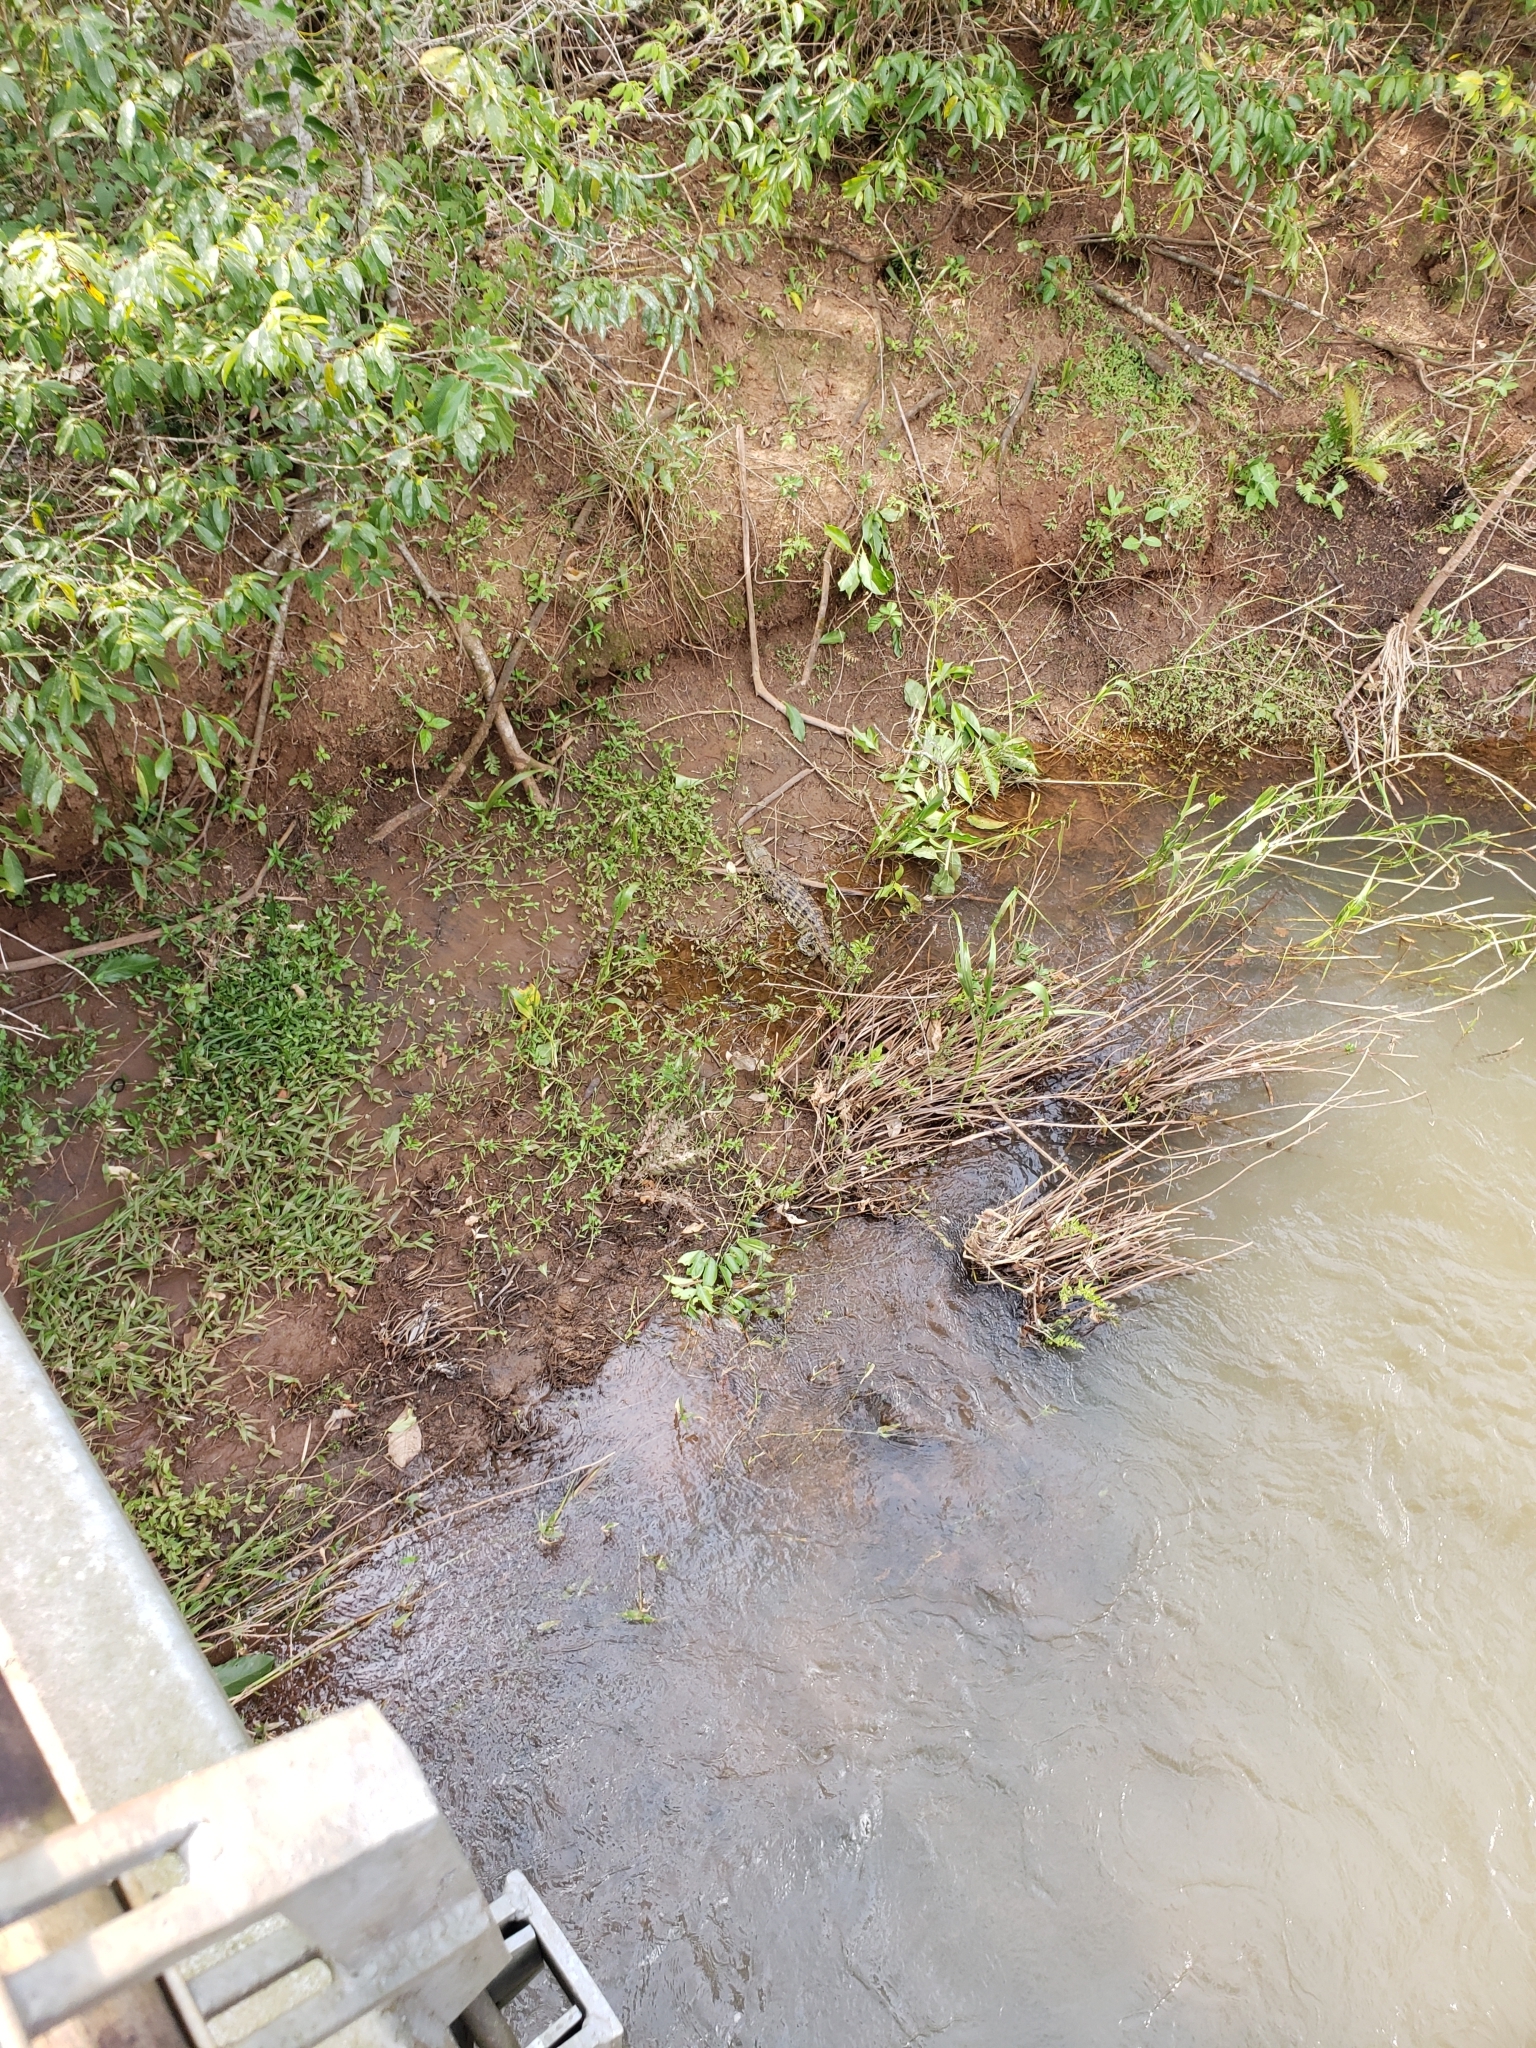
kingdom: Animalia
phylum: Chordata
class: Crocodylia
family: Alligatoridae
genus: Caiman
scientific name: Caiman latirostris
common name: Broad-snouted caiman
